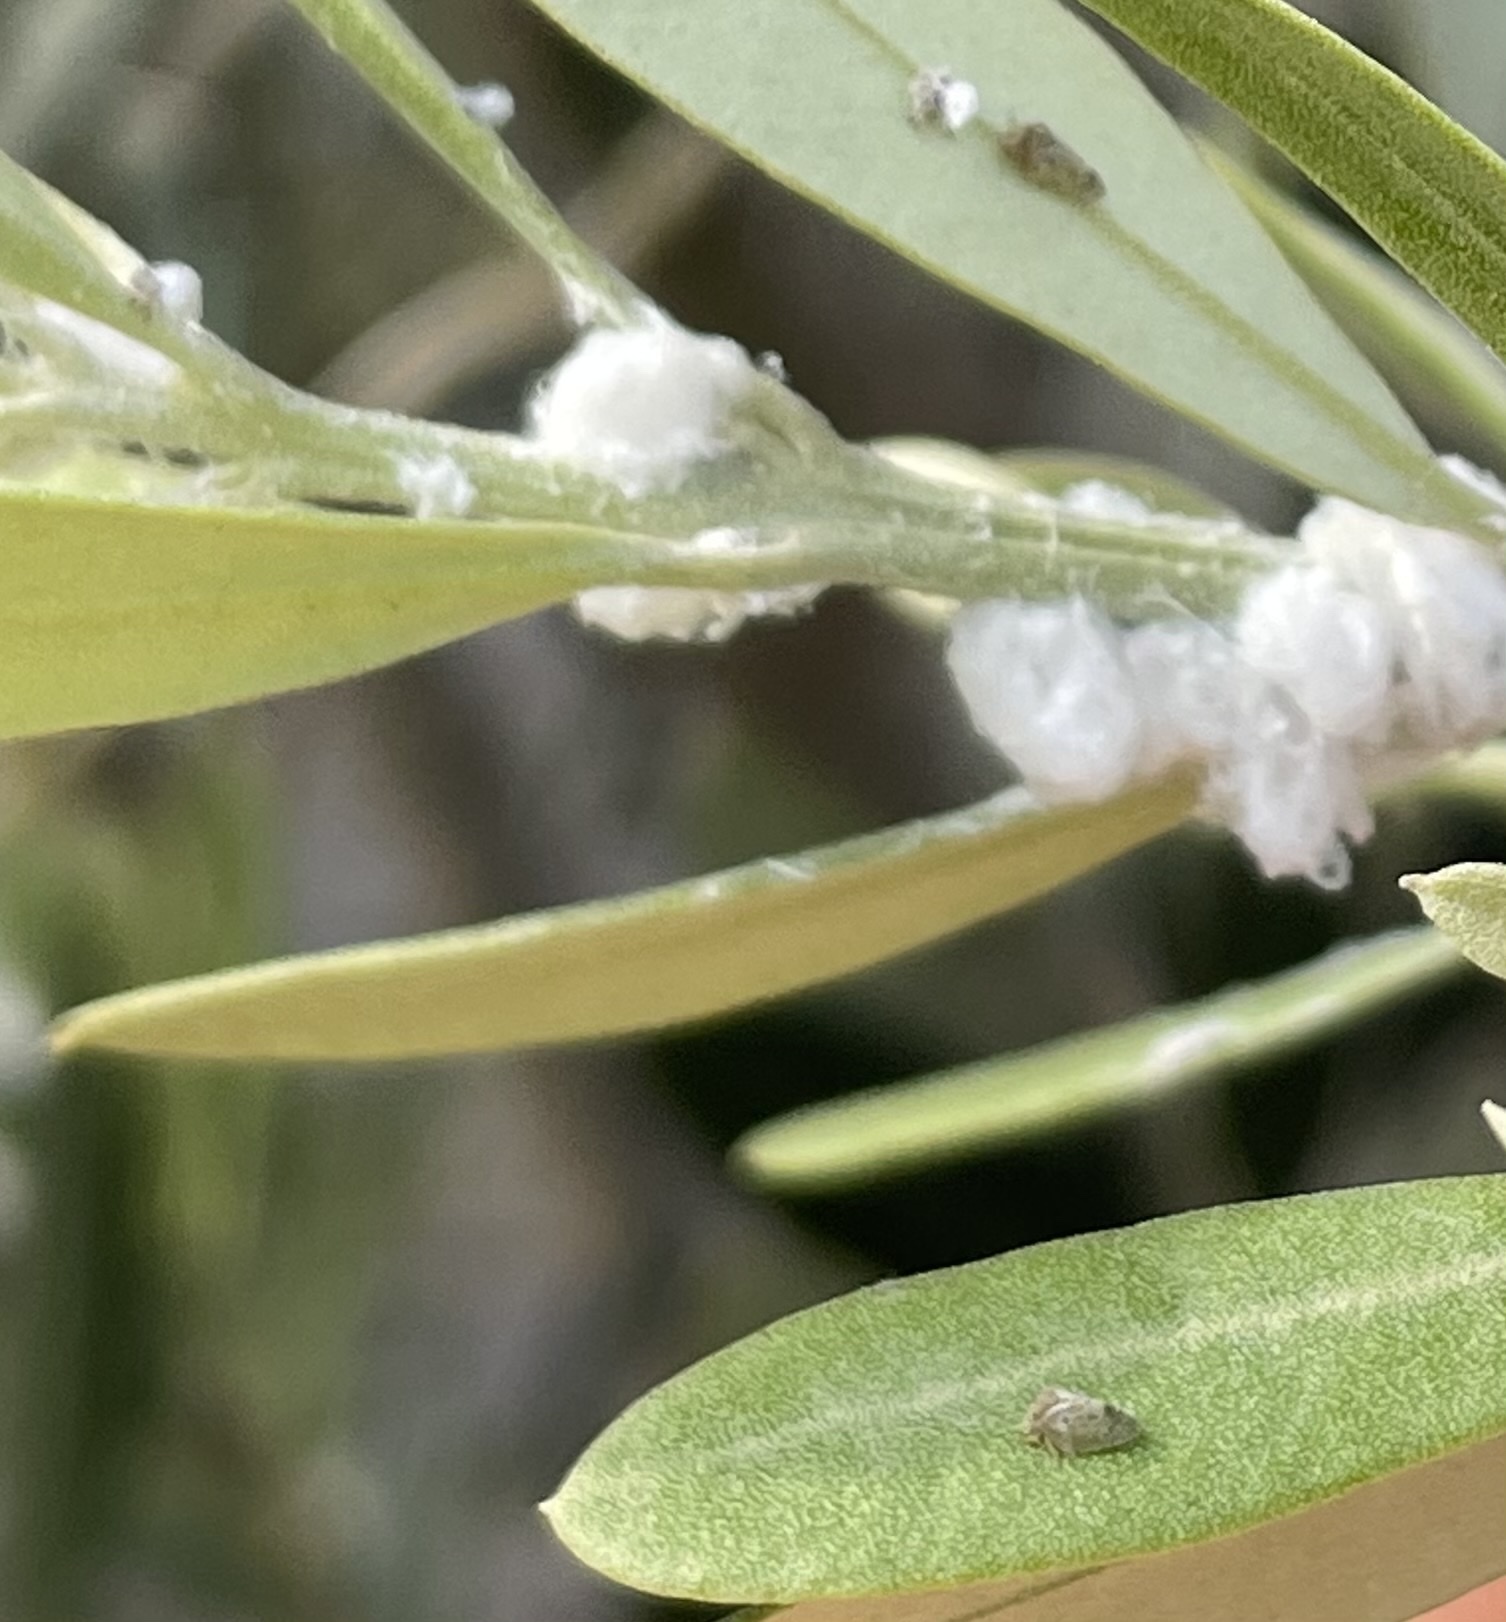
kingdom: Animalia
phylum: Arthropoda
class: Insecta
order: Hemiptera
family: Liviidae
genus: Euphyllura
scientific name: Euphyllura olivina
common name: Olive psyllid
